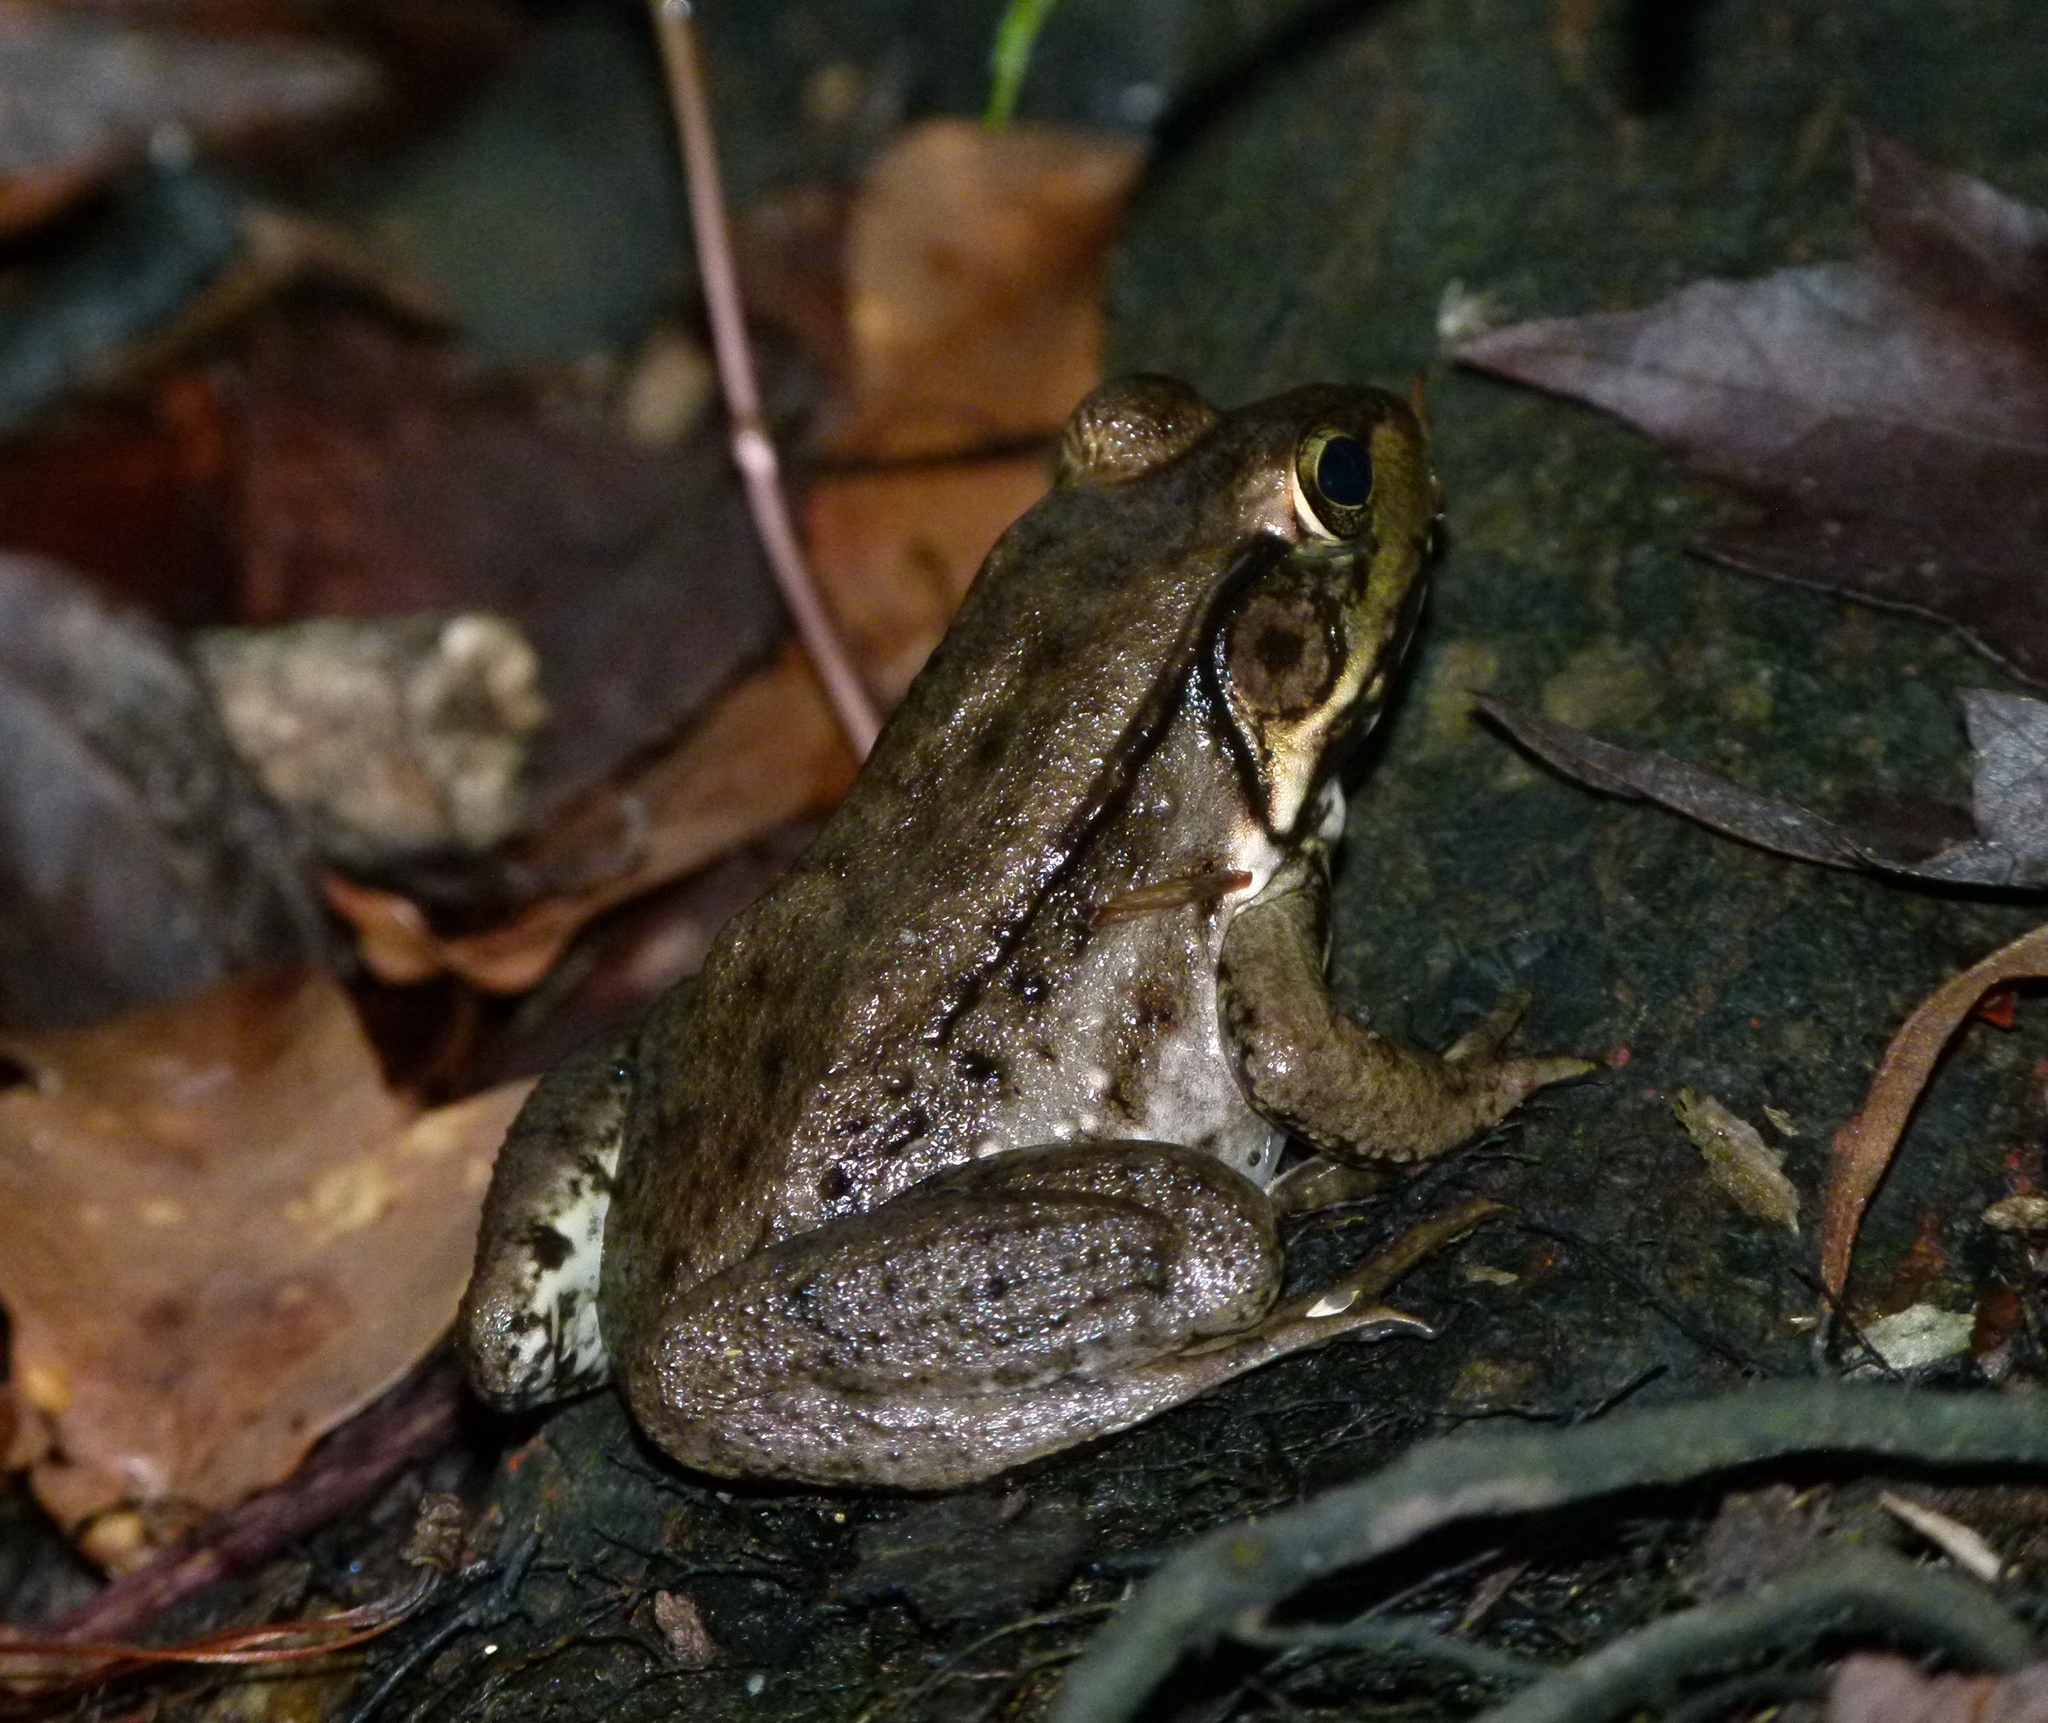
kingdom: Animalia
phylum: Chordata
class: Amphibia
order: Anura
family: Ranidae
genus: Lithobates
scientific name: Lithobates clamitans
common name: Green frog
